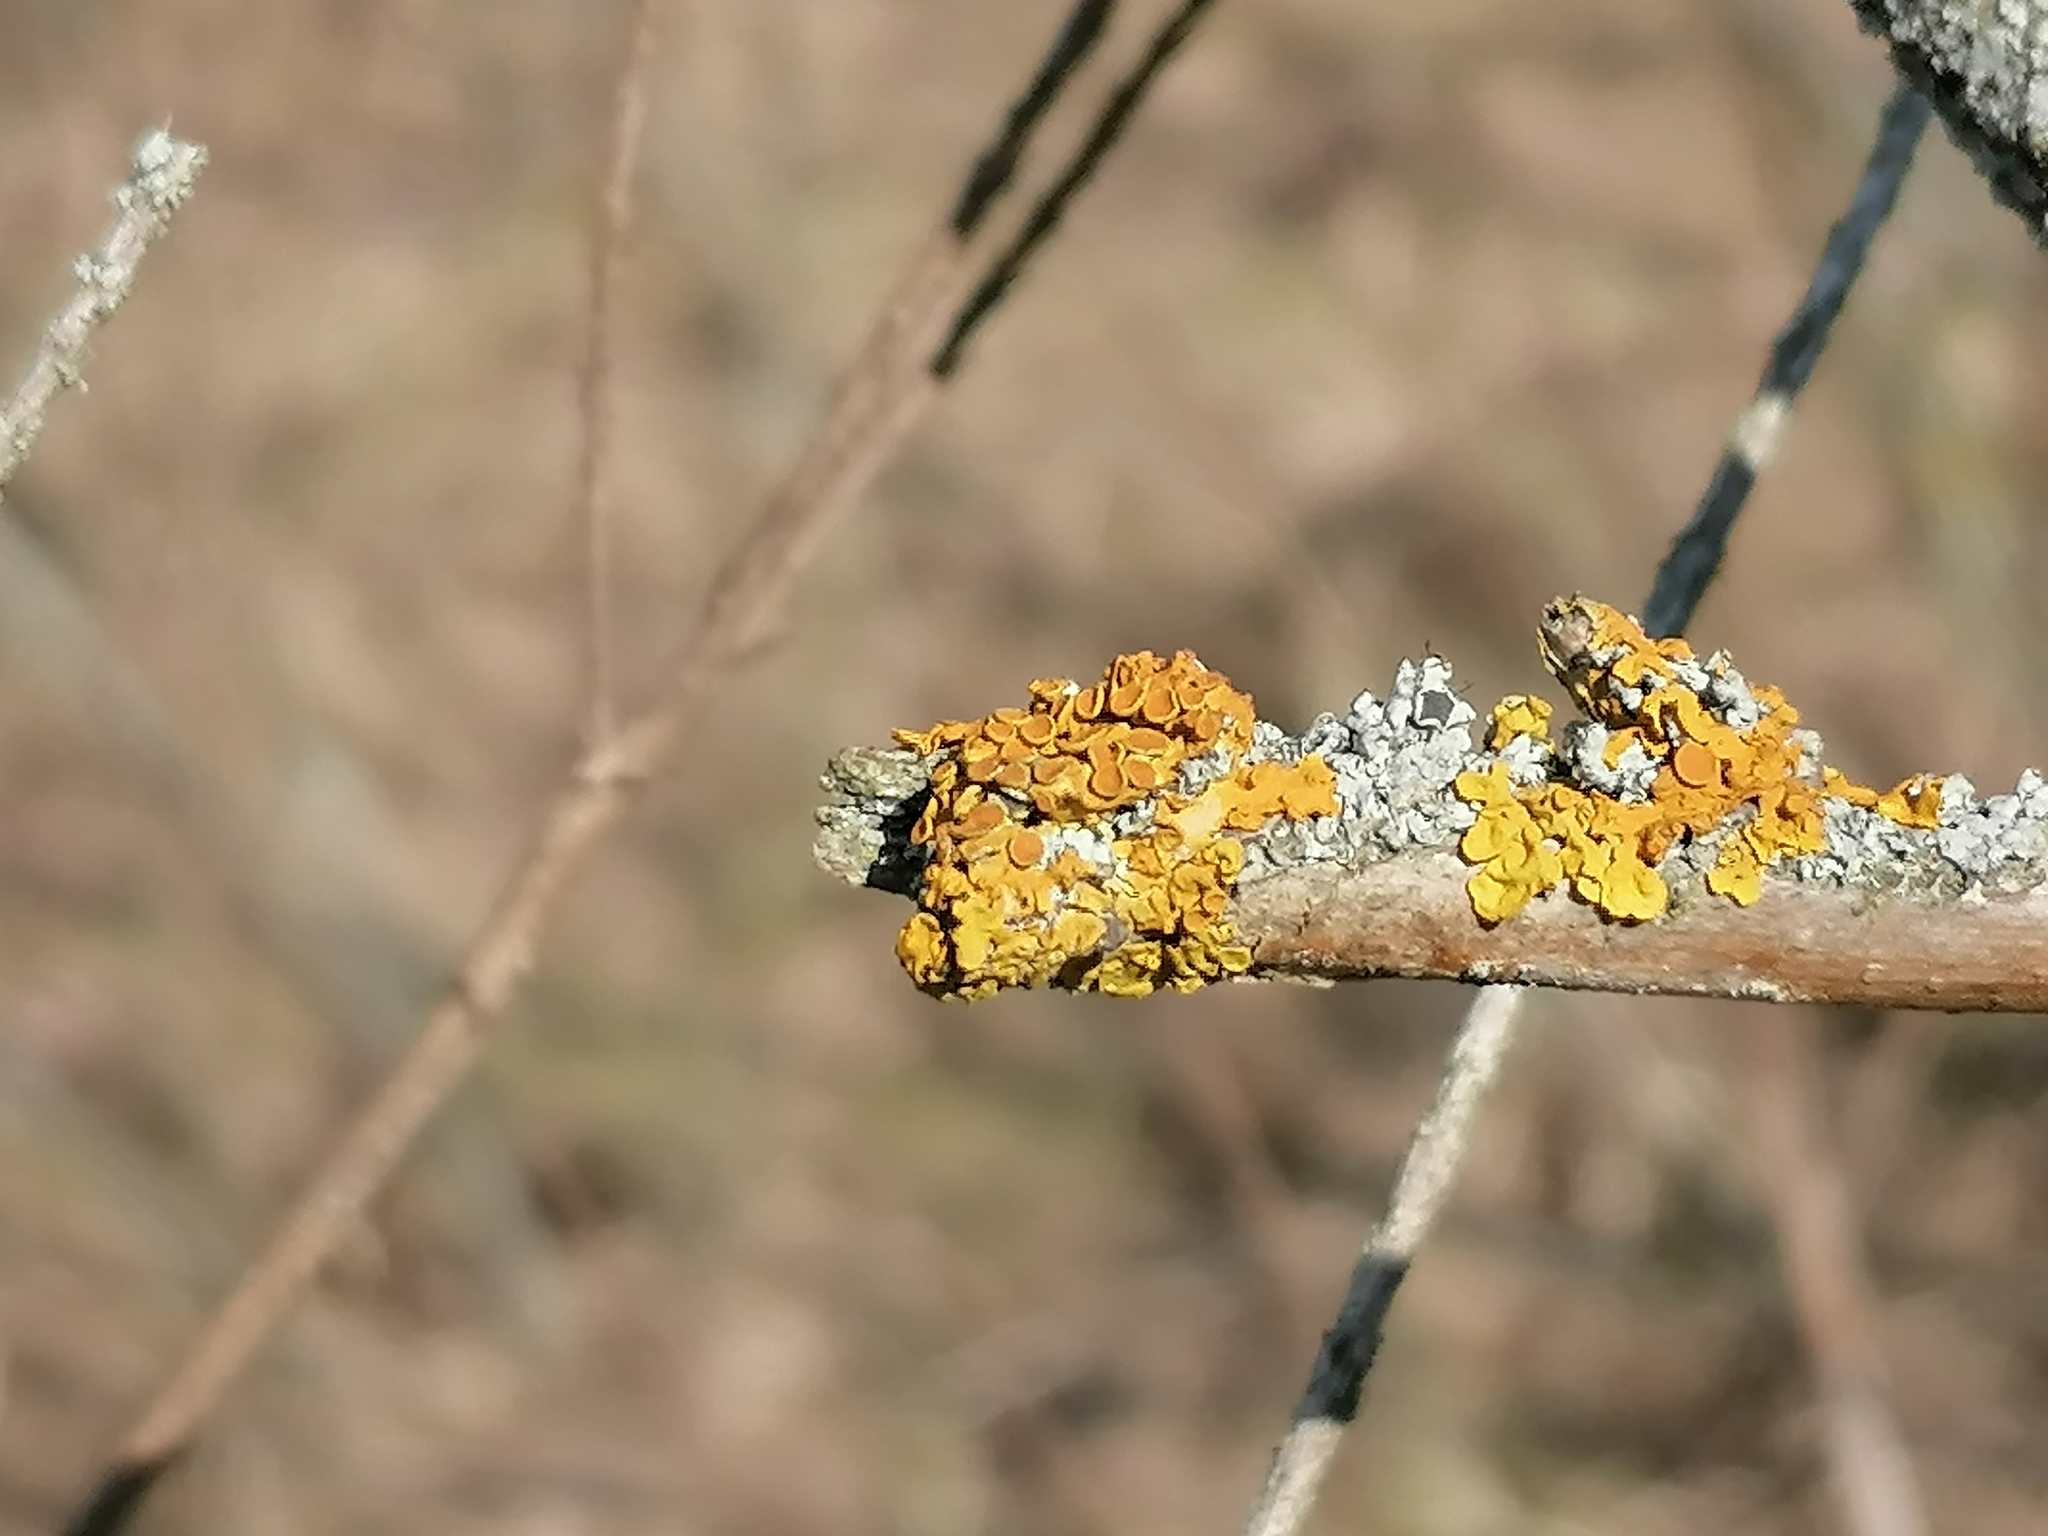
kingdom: Fungi
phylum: Ascomycota
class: Lecanoromycetes
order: Teloschistales
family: Teloschistaceae
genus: Xanthoria
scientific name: Xanthoria parietina
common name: Common orange lichen
